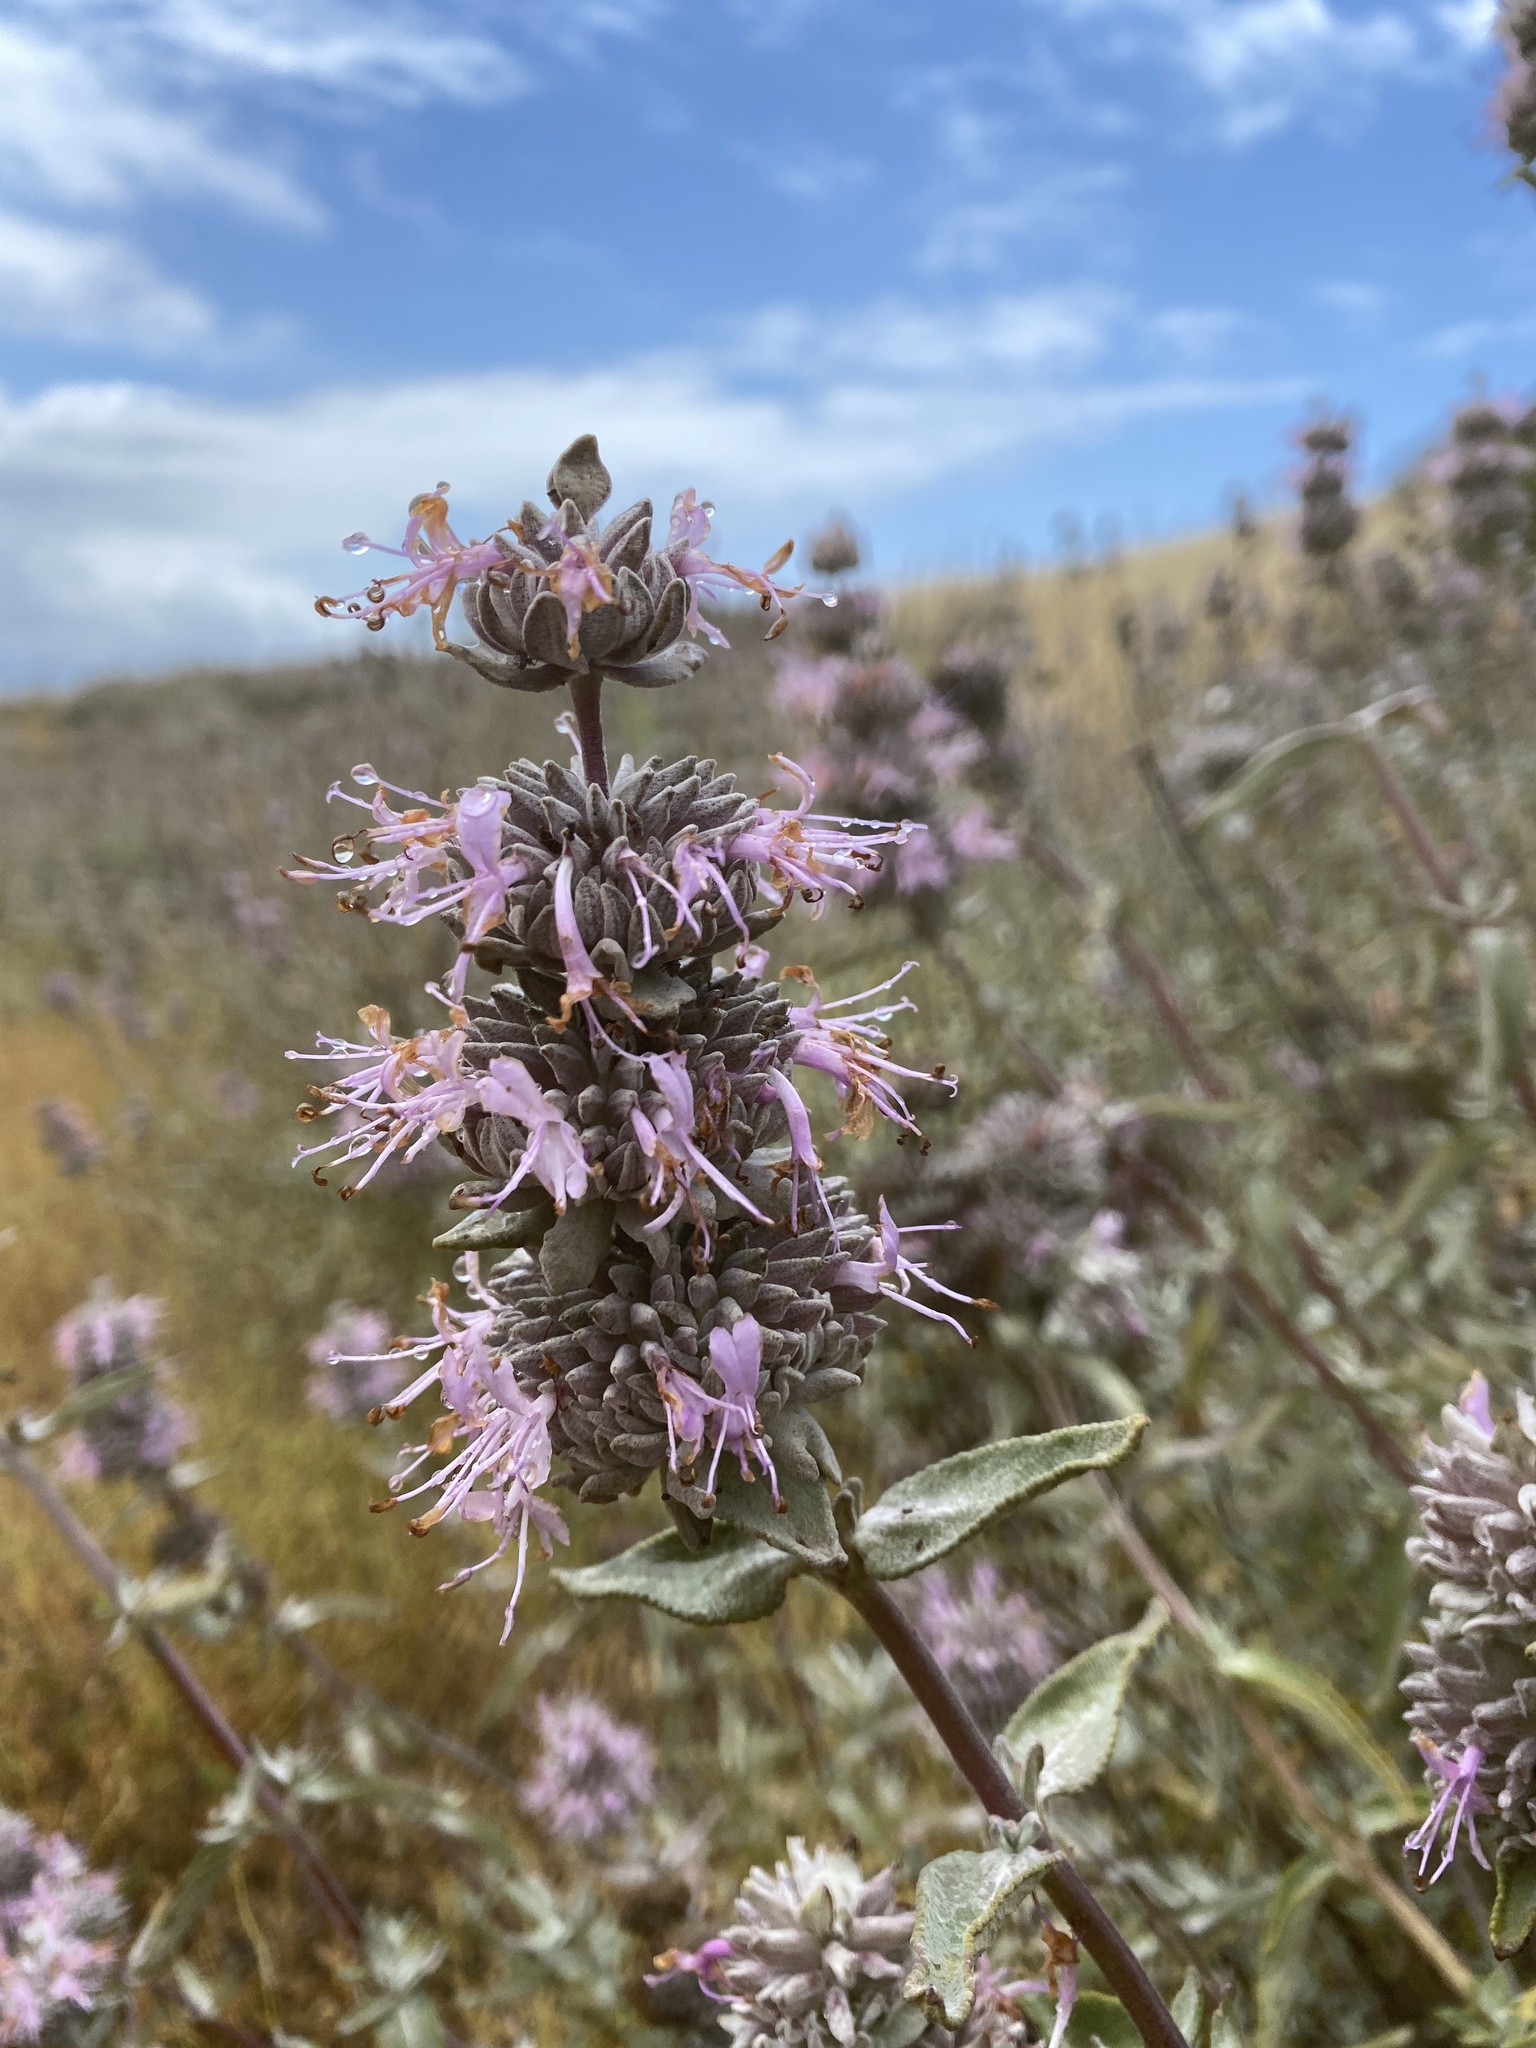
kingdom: Plantae
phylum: Tracheophyta
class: Magnoliopsida
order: Lamiales
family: Lamiaceae
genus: Salvia
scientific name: Salvia leucophylla
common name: Purple sage
